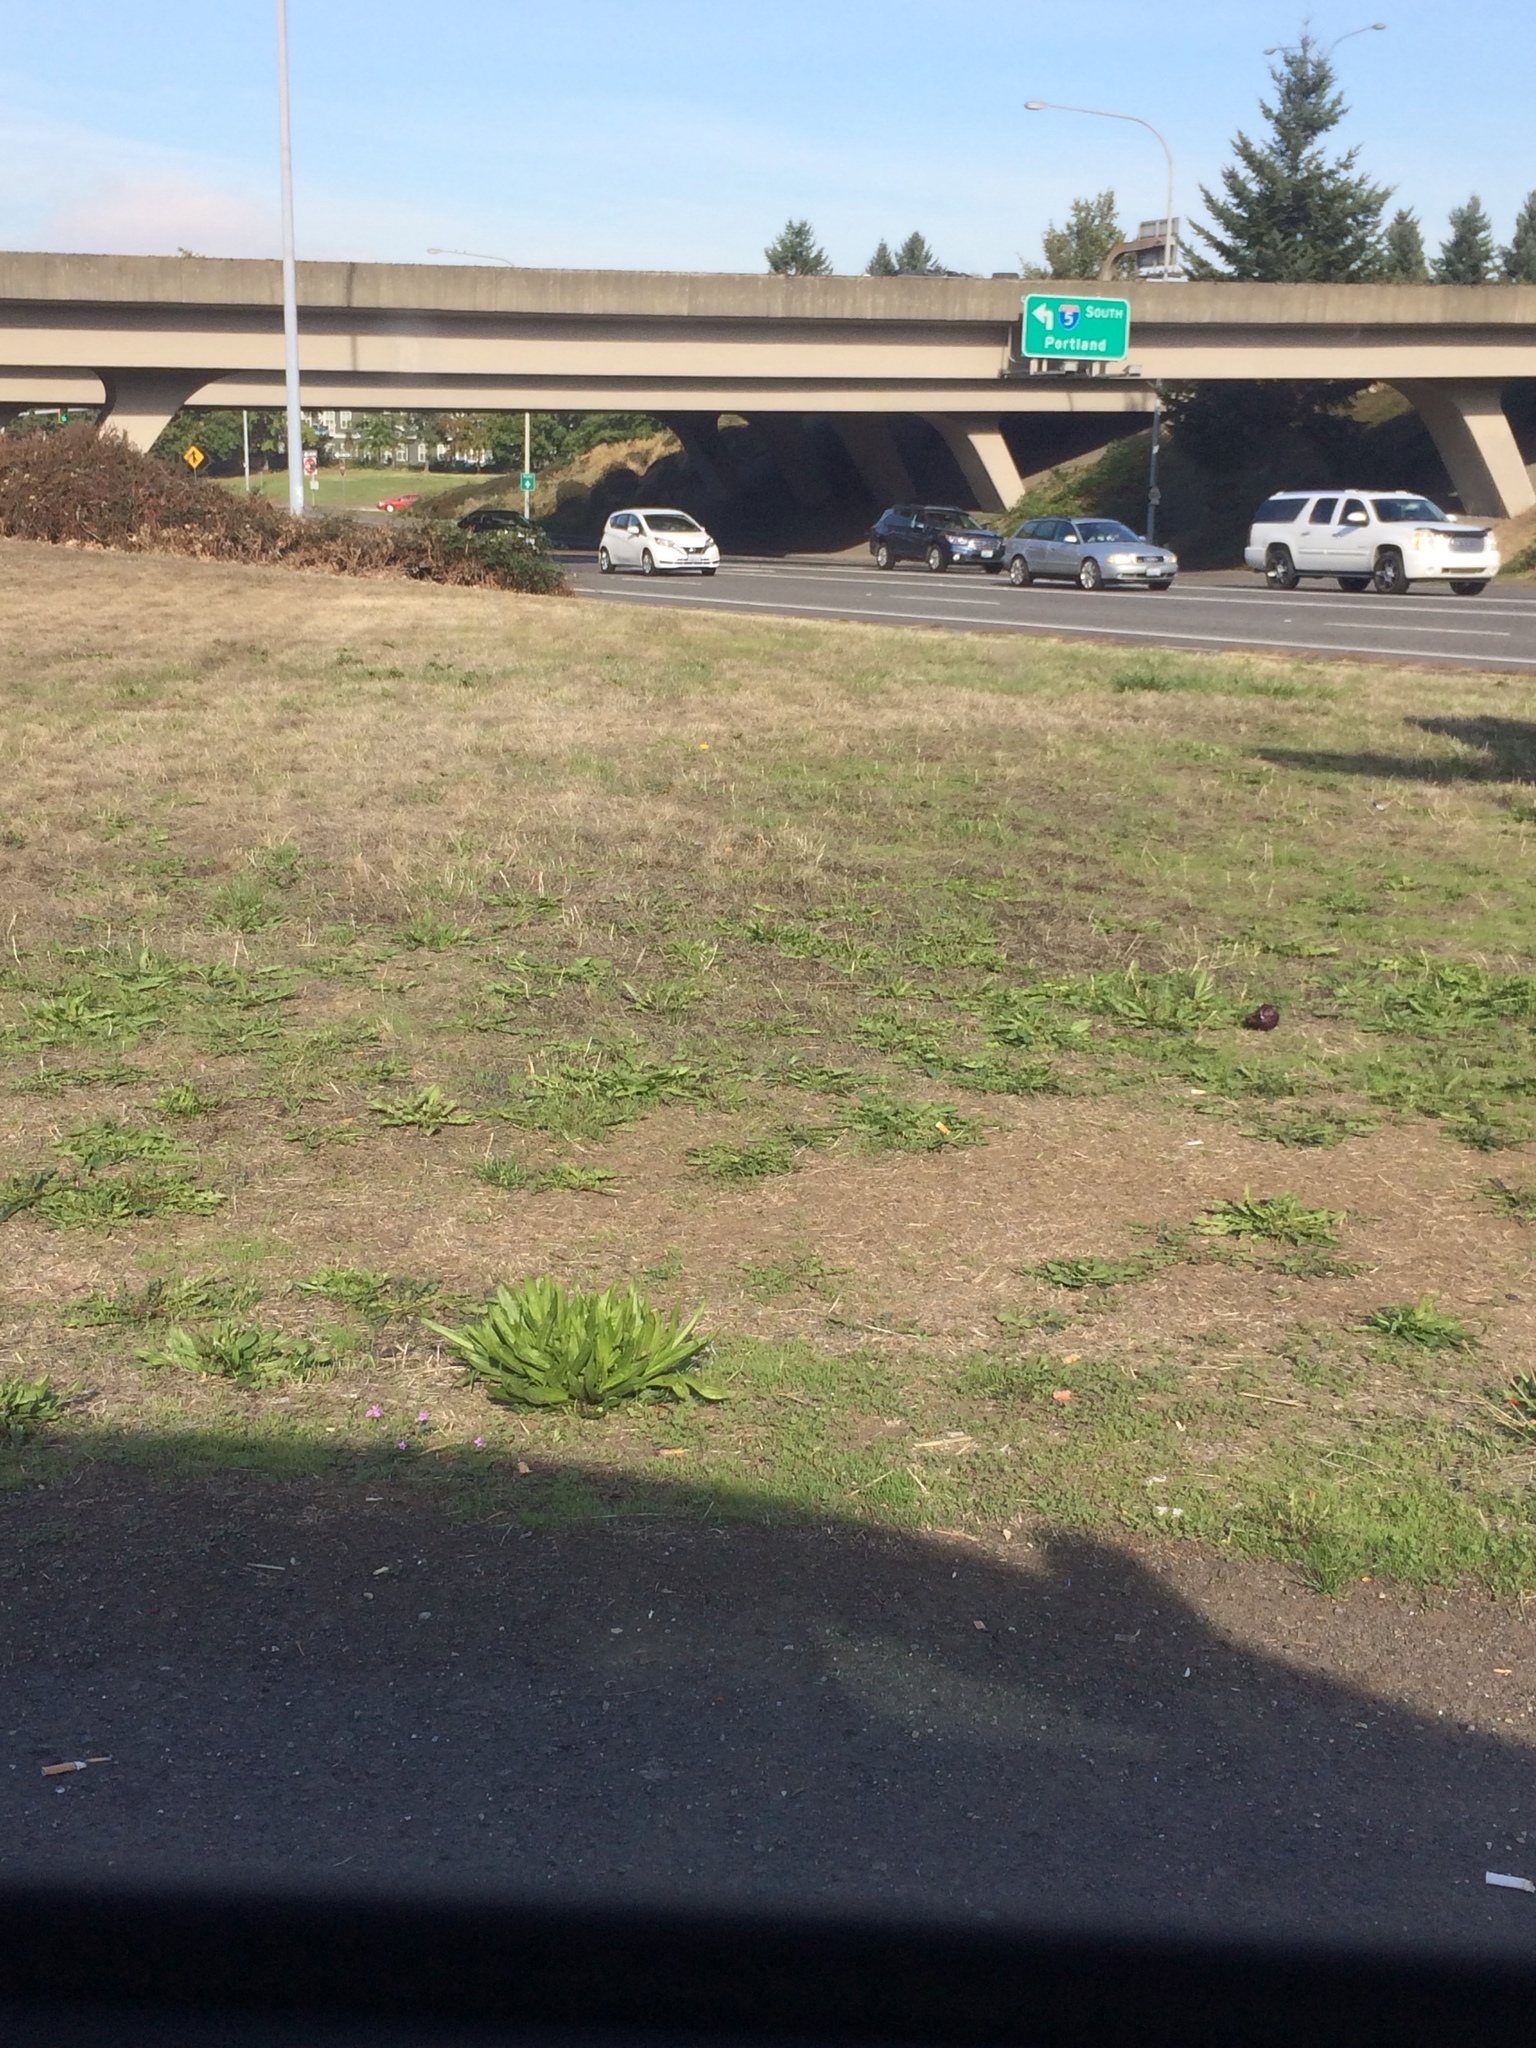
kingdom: Plantae
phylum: Tracheophyta
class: Magnoliopsida
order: Lamiales
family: Plantaginaceae
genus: Plantago
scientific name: Plantago lanceolata
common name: Ribwort plantain
